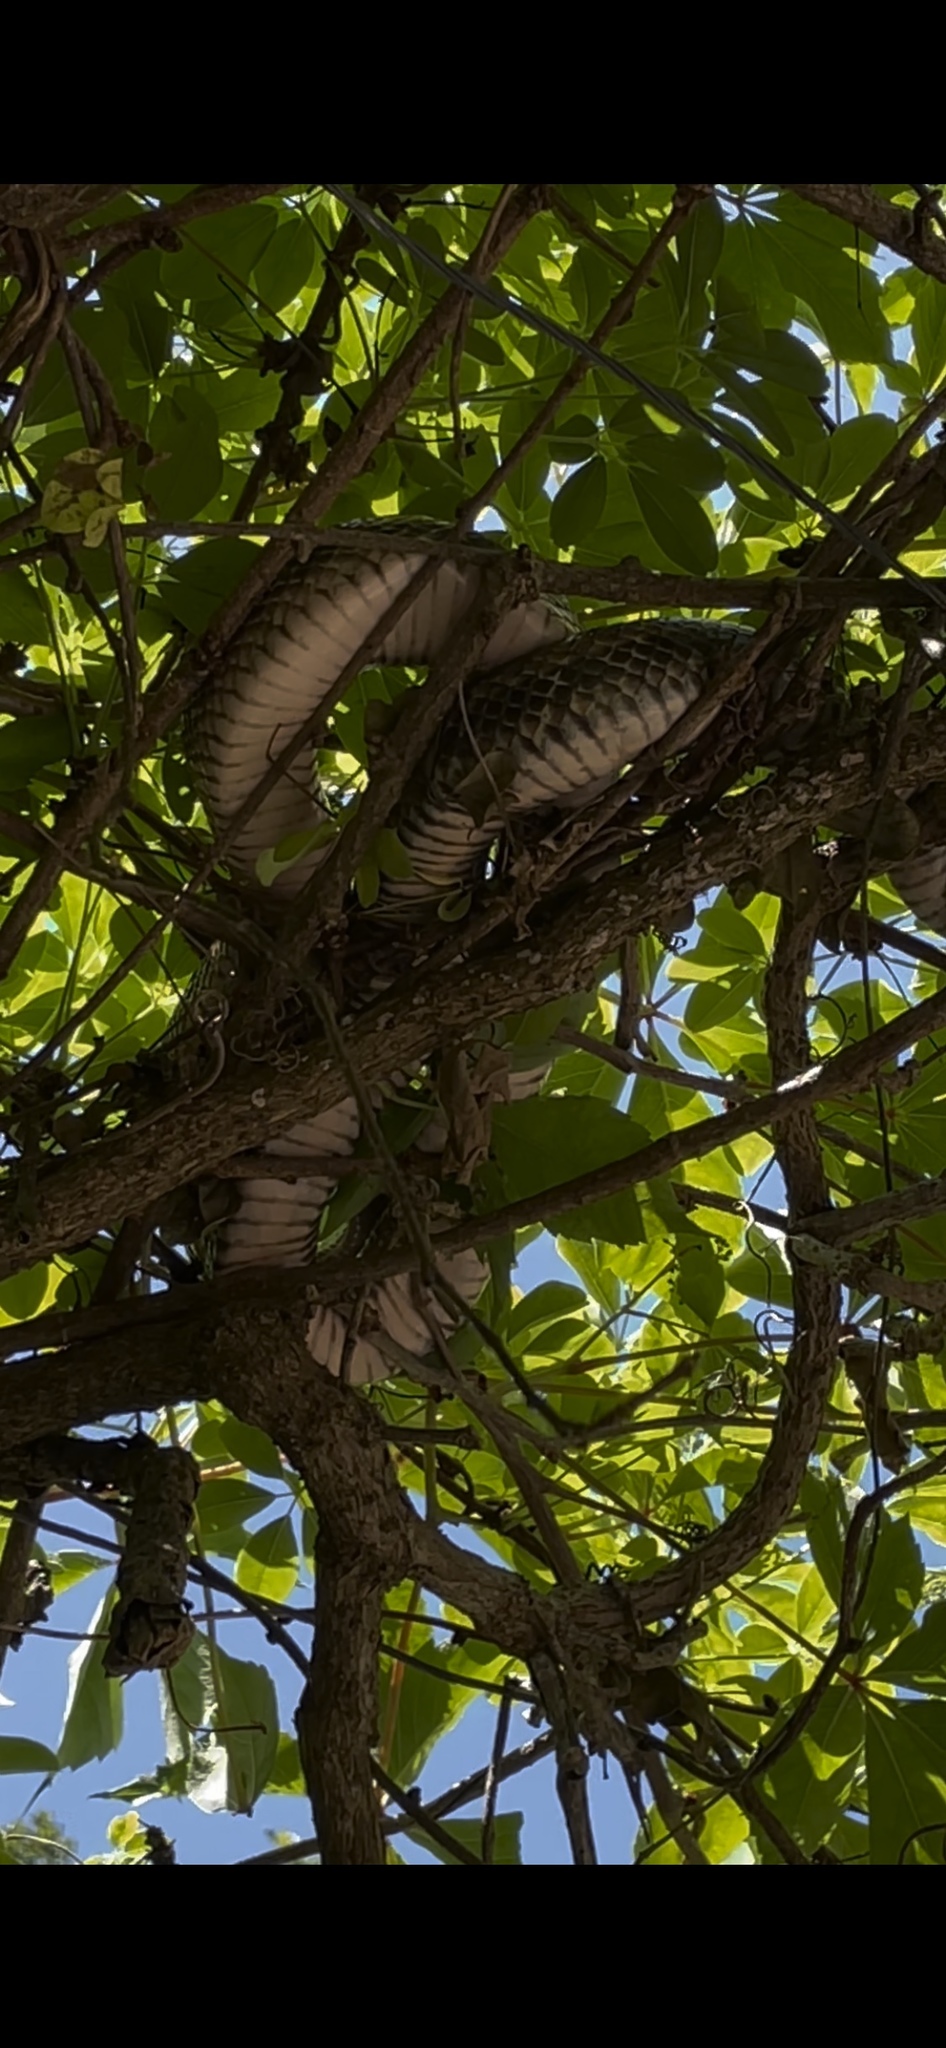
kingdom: Animalia
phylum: Chordata
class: Squamata
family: Colubridae
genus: Pantherophis
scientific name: Pantherophis alleghaniensis
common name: Eastern rat snake
